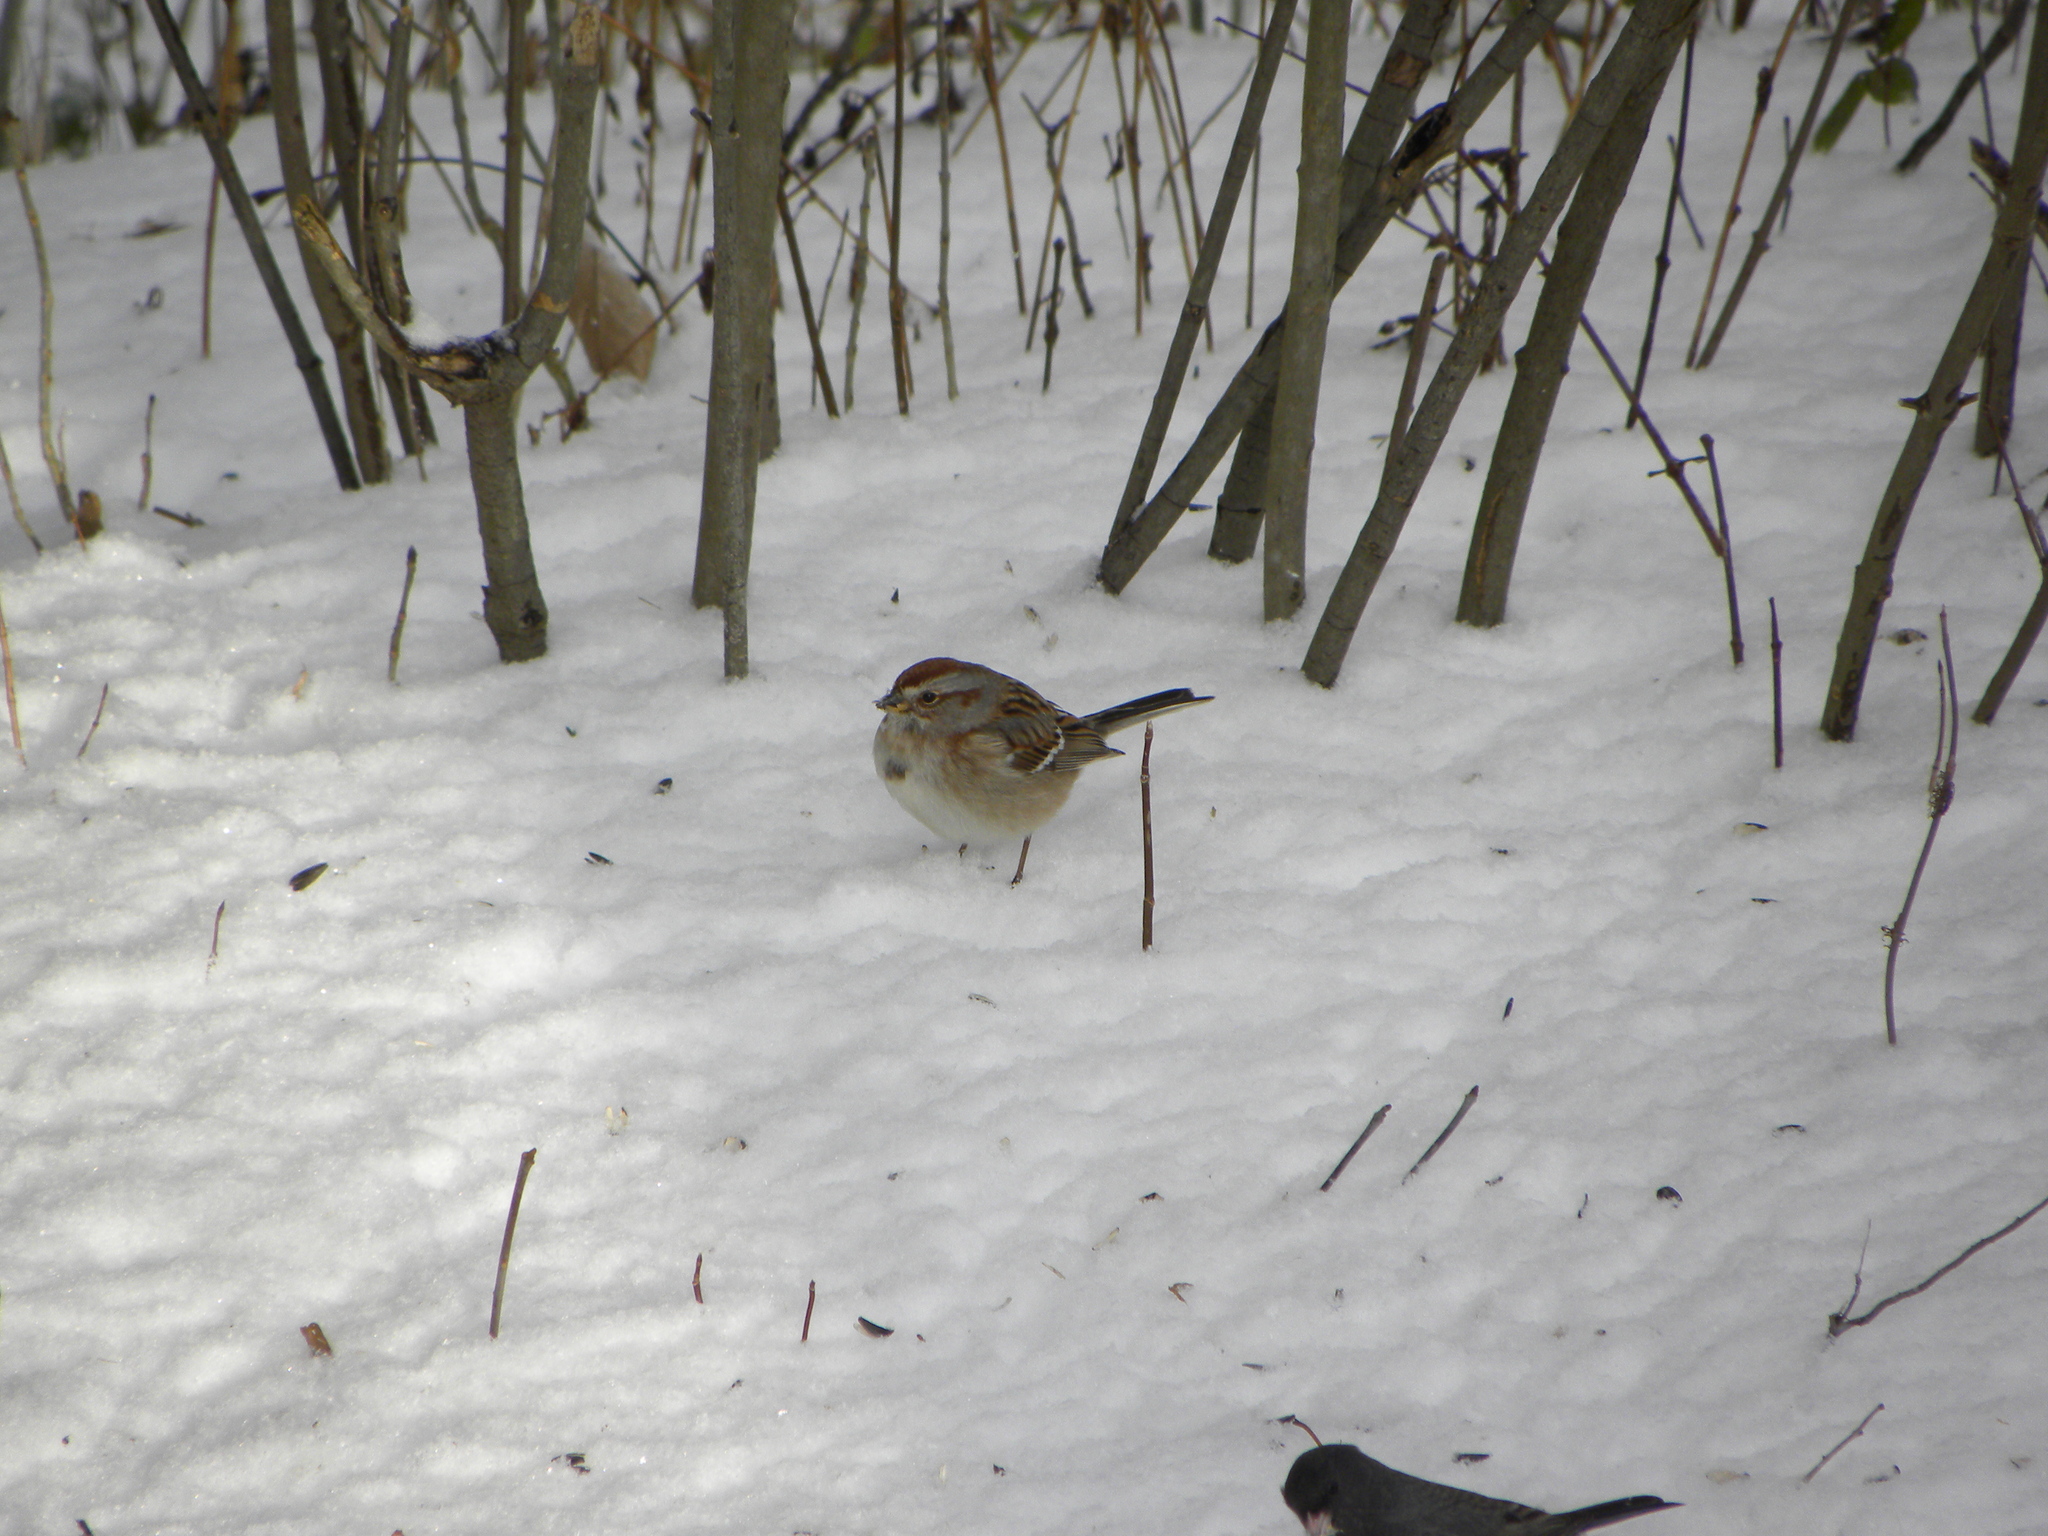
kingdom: Animalia
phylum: Chordata
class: Aves
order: Passeriformes
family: Passerellidae
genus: Spizelloides
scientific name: Spizelloides arborea
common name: American tree sparrow
